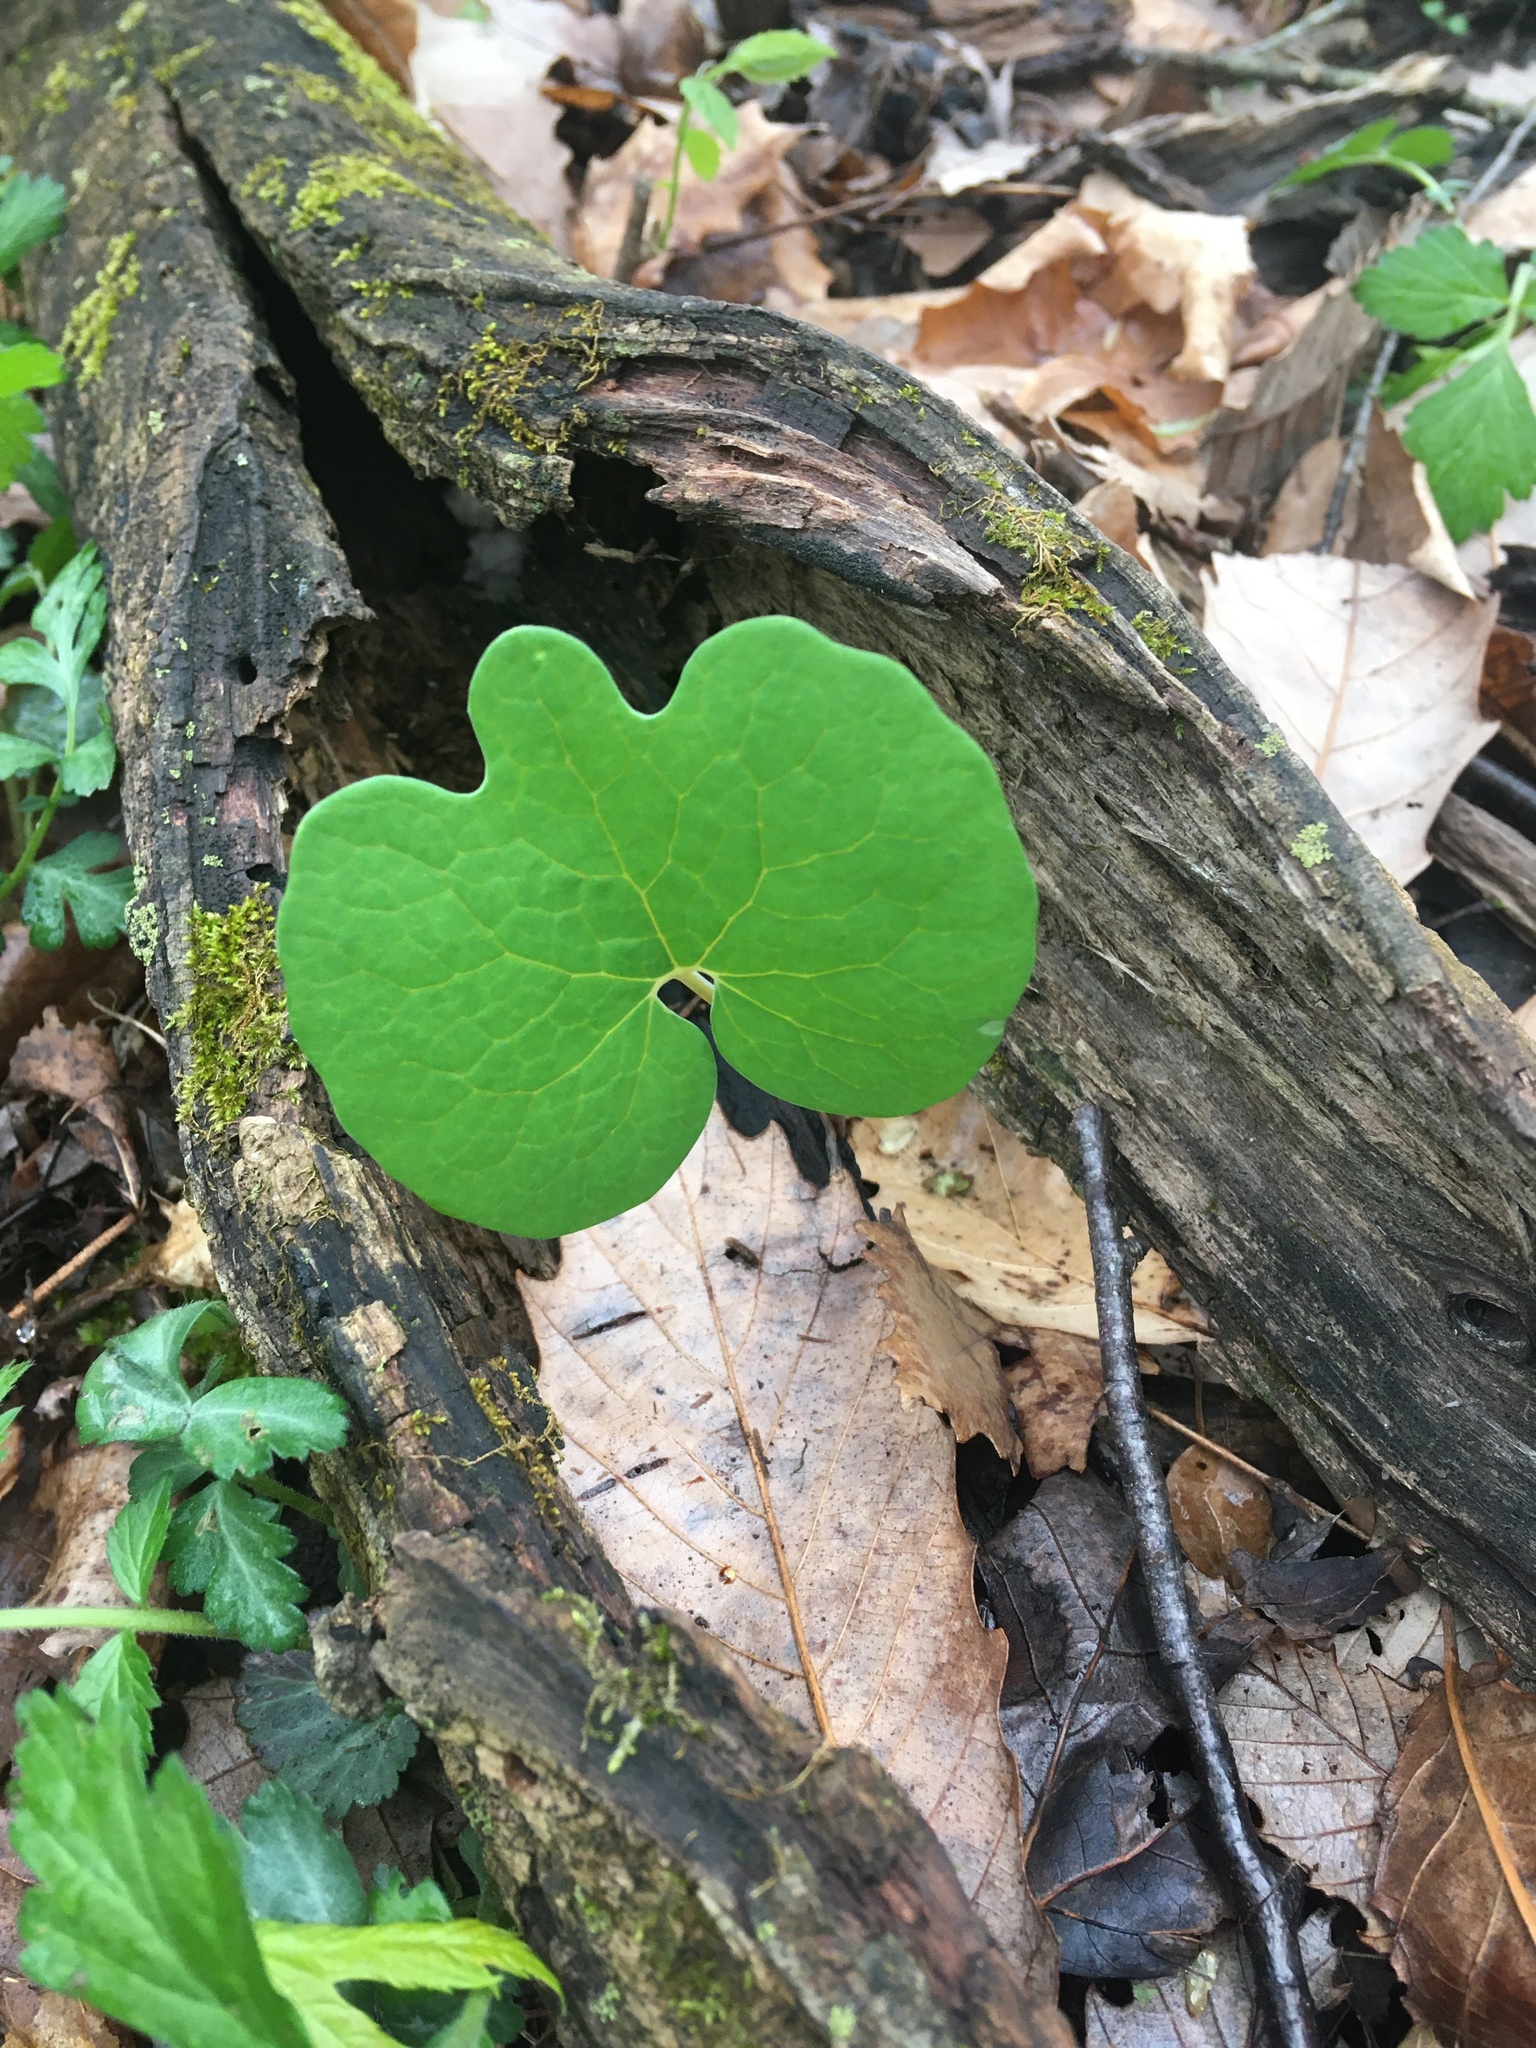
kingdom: Plantae
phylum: Tracheophyta
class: Magnoliopsida
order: Ranunculales
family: Papaveraceae
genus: Sanguinaria
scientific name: Sanguinaria canadensis
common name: Bloodroot
